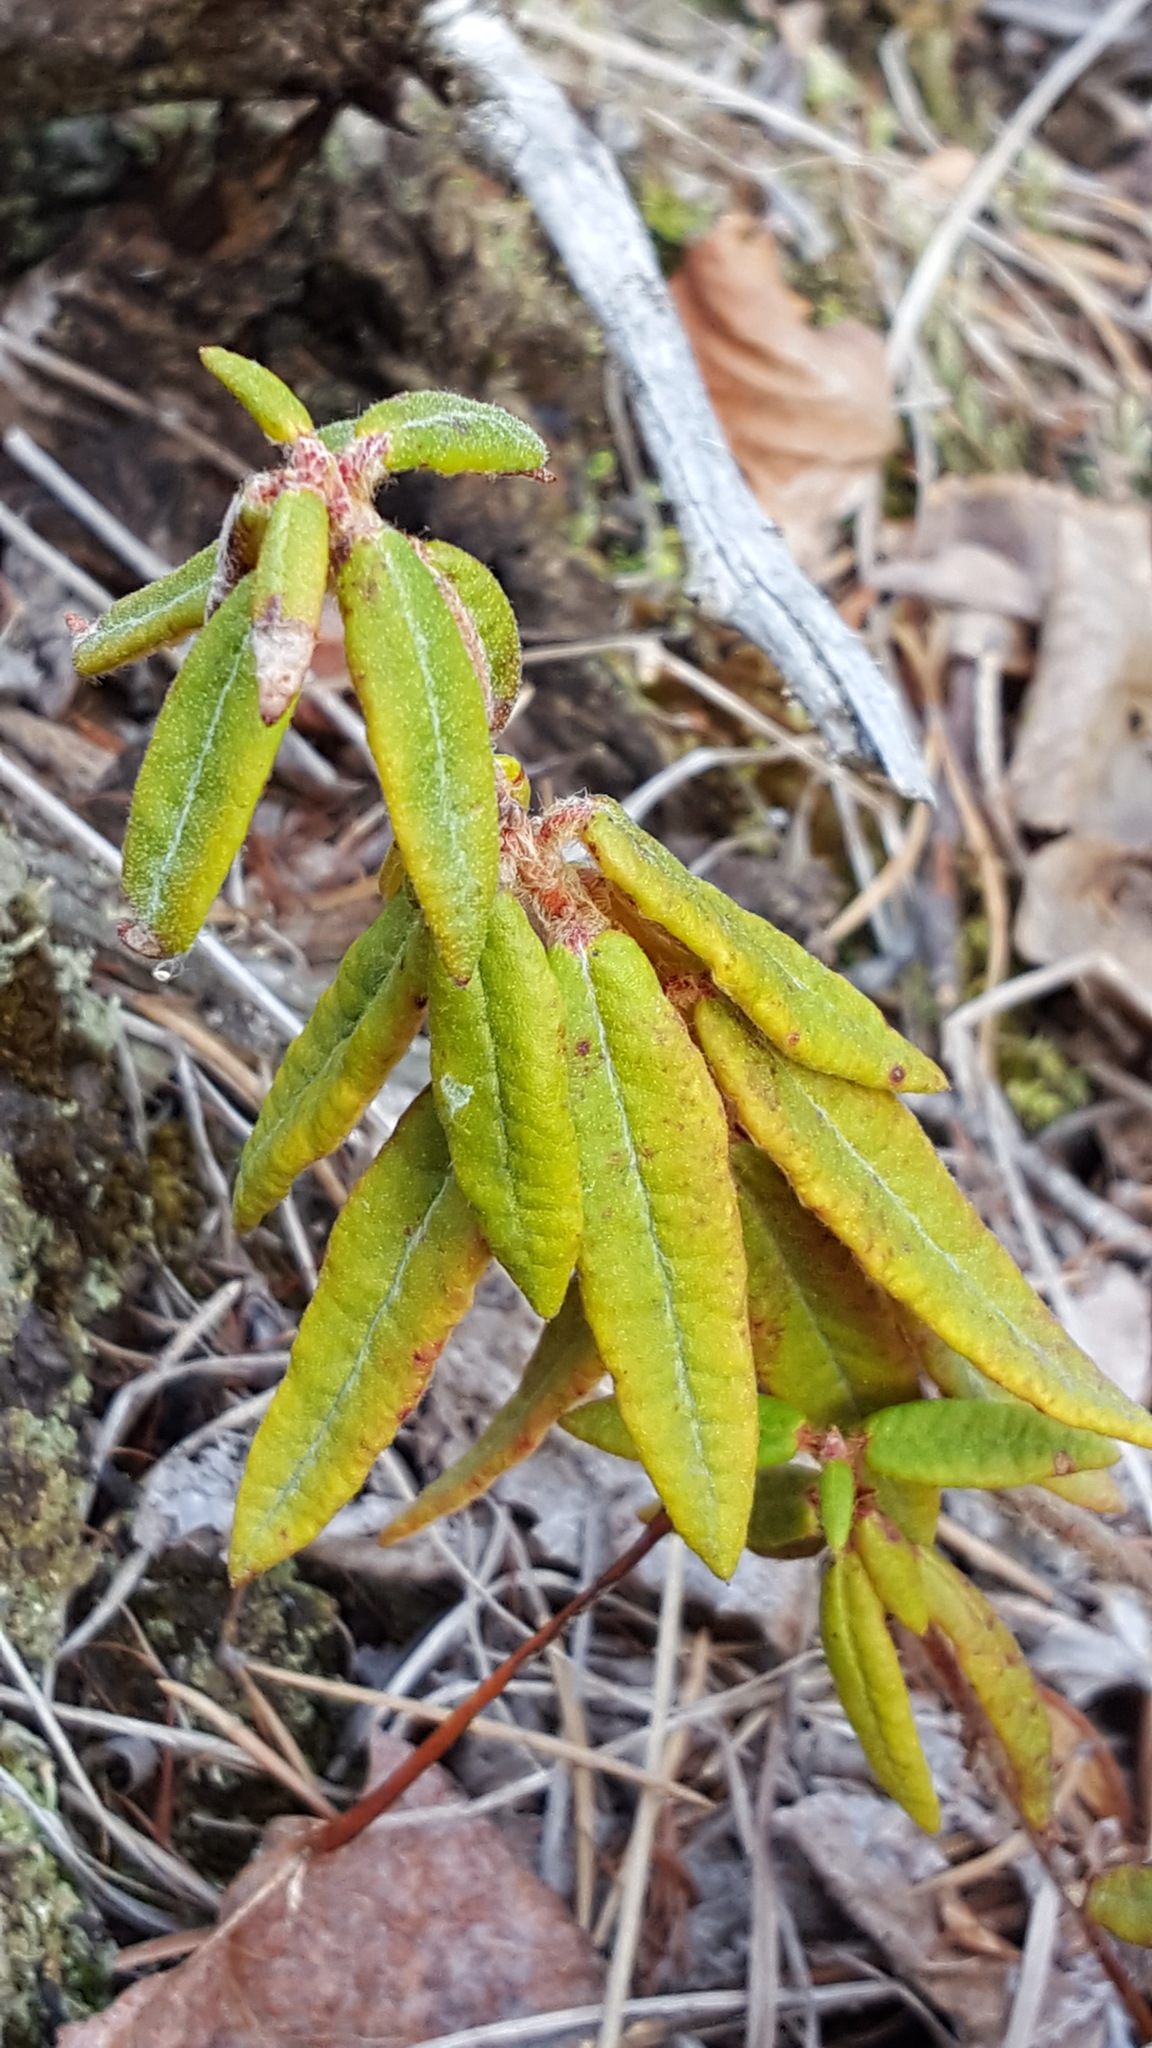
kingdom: Plantae
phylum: Tracheophyta
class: Magnoliopsida
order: Ericales
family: Ericaceae
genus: Rhododendron
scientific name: Rhododendron groenlandicum
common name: Bog labrador tea
